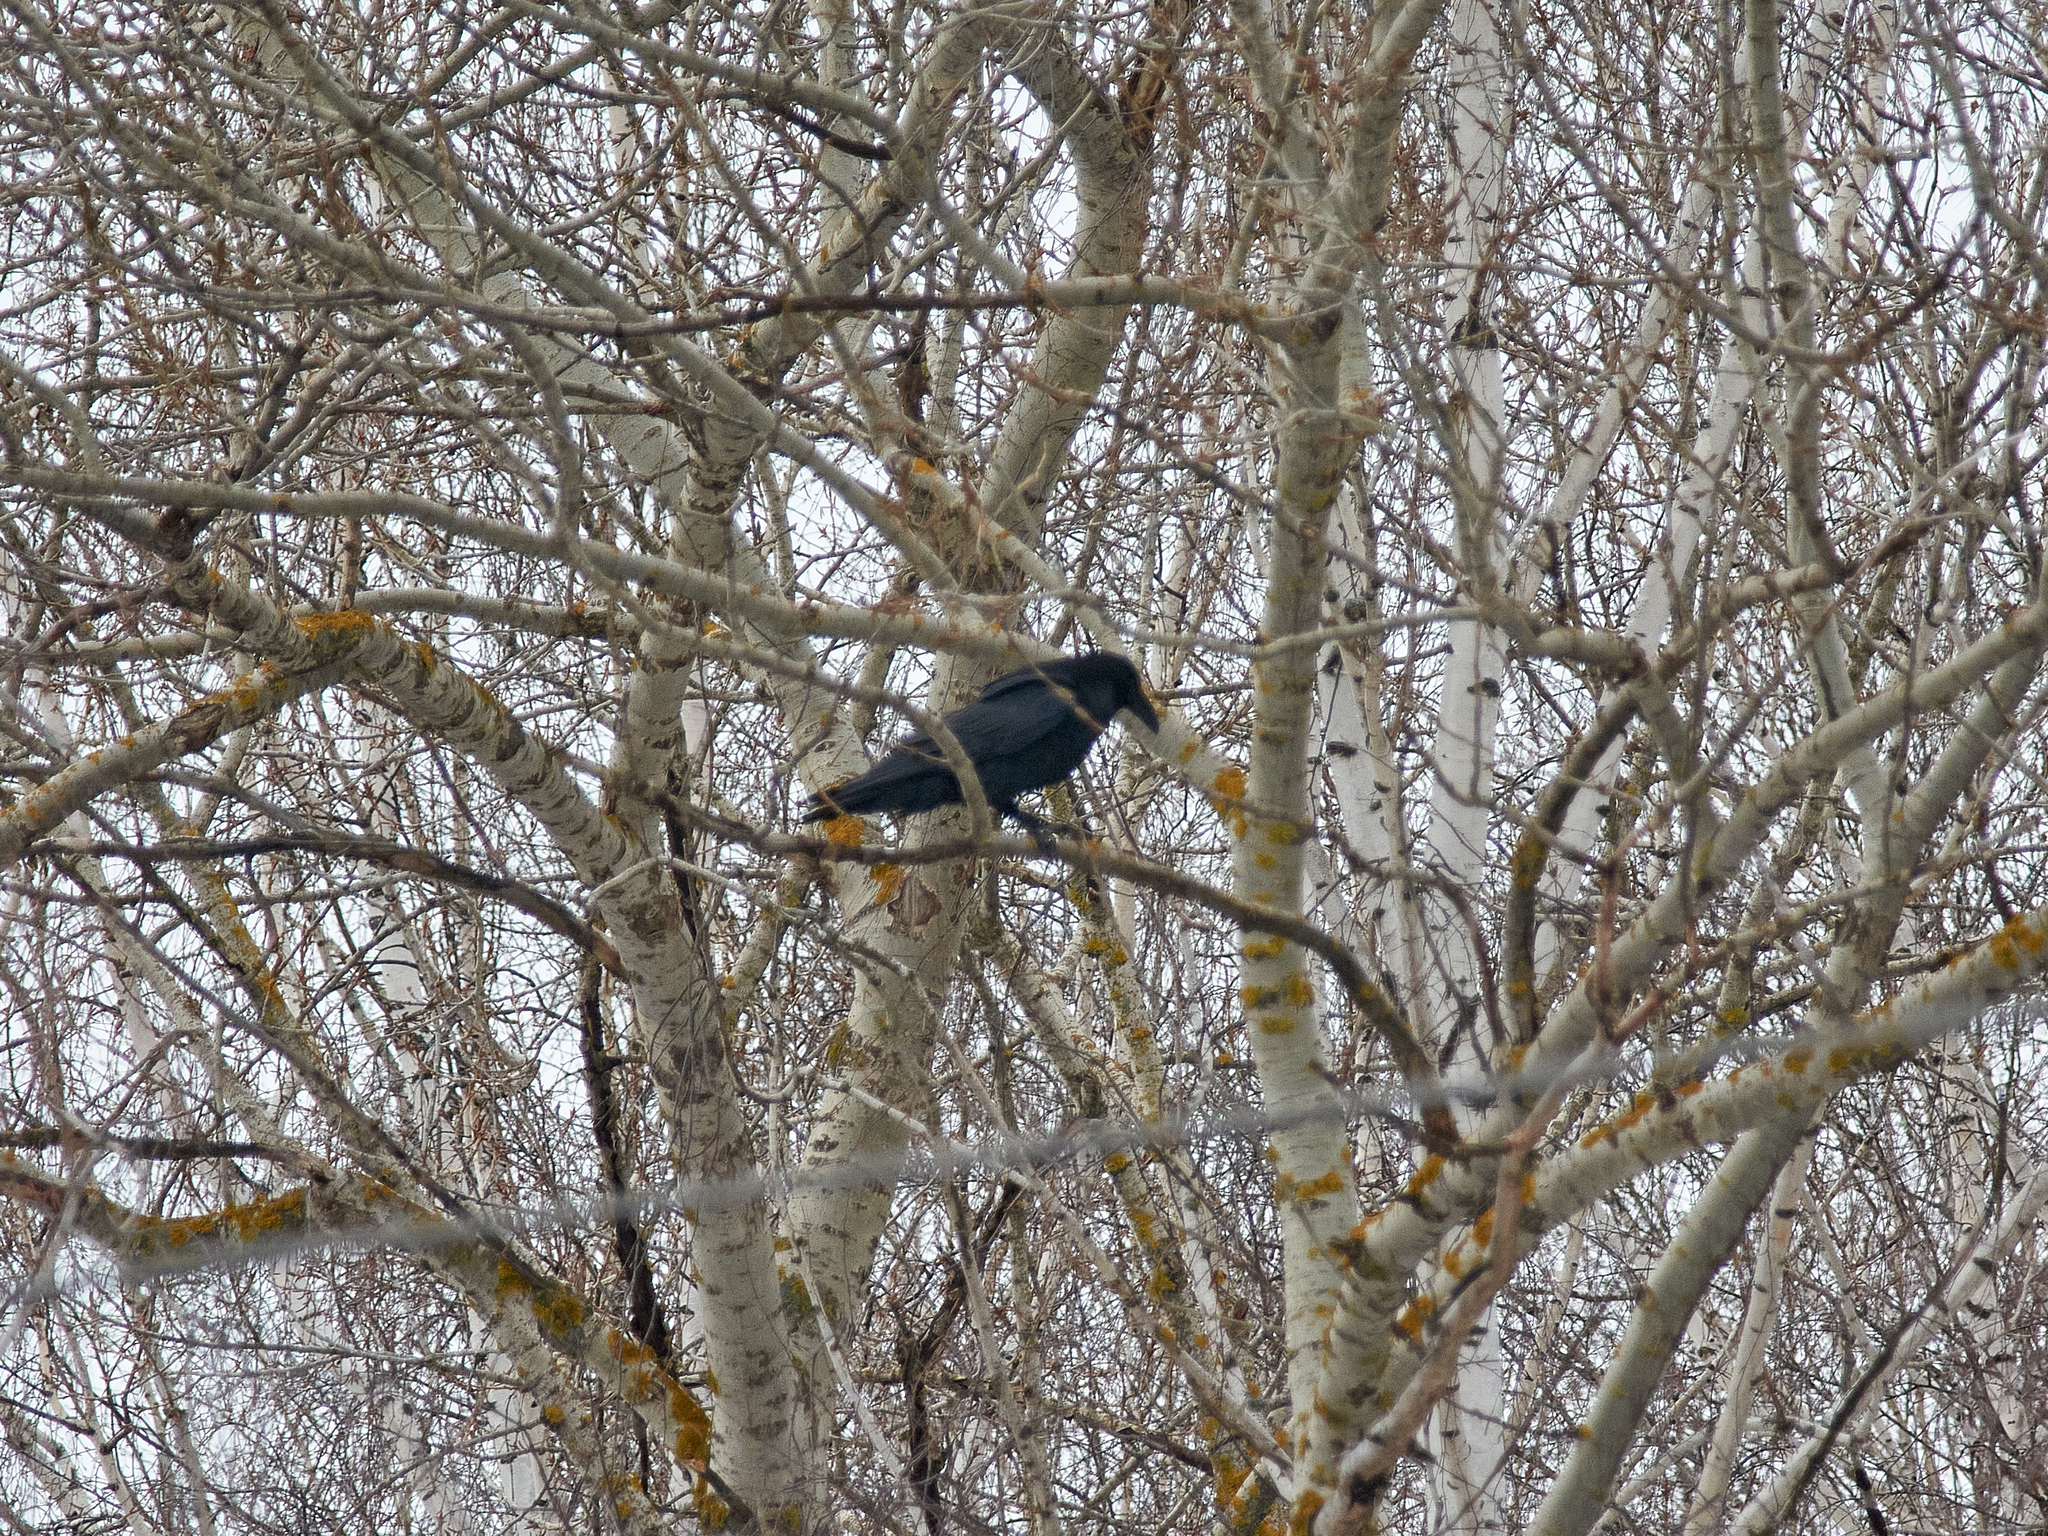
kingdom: Animalia
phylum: Chordata
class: Aves
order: Passeriformes
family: Corvidae
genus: Corvus
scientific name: Corvus corax
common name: Common raven
